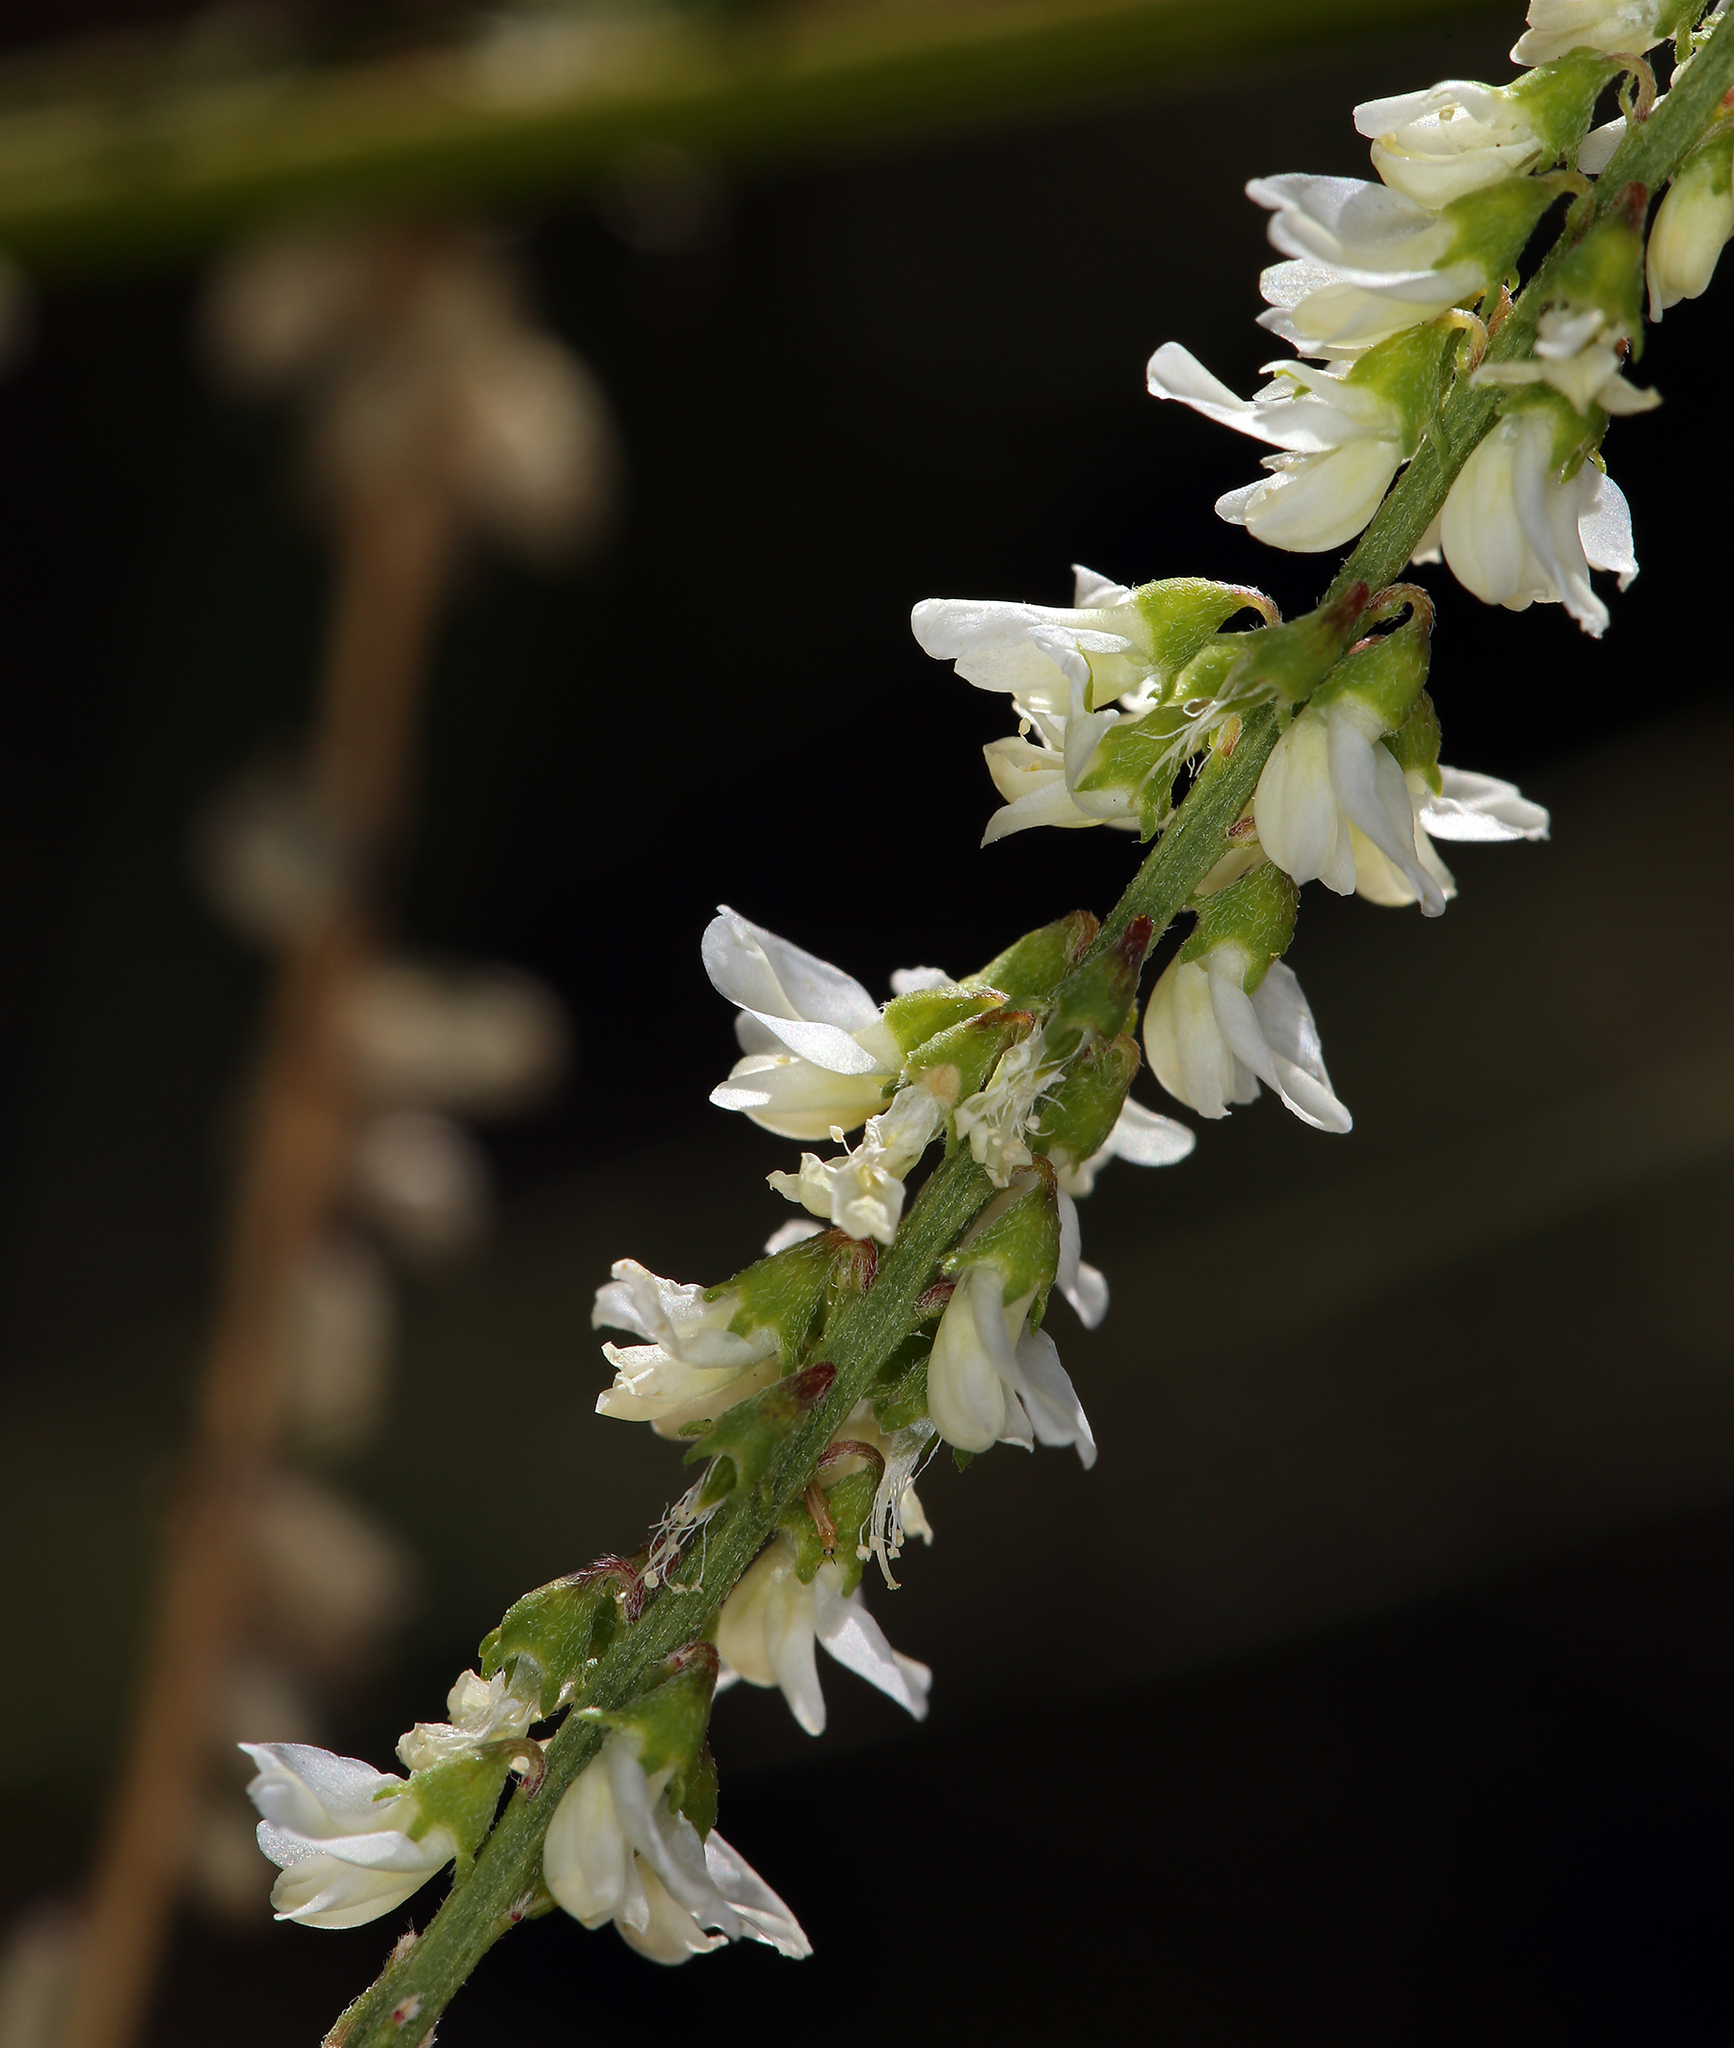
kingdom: Plantae
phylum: Tracheophyta
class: Magnoliopsida
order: Fabales
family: Fabaceae
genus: Melilotus
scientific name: Melilotus albus
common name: White melilot
